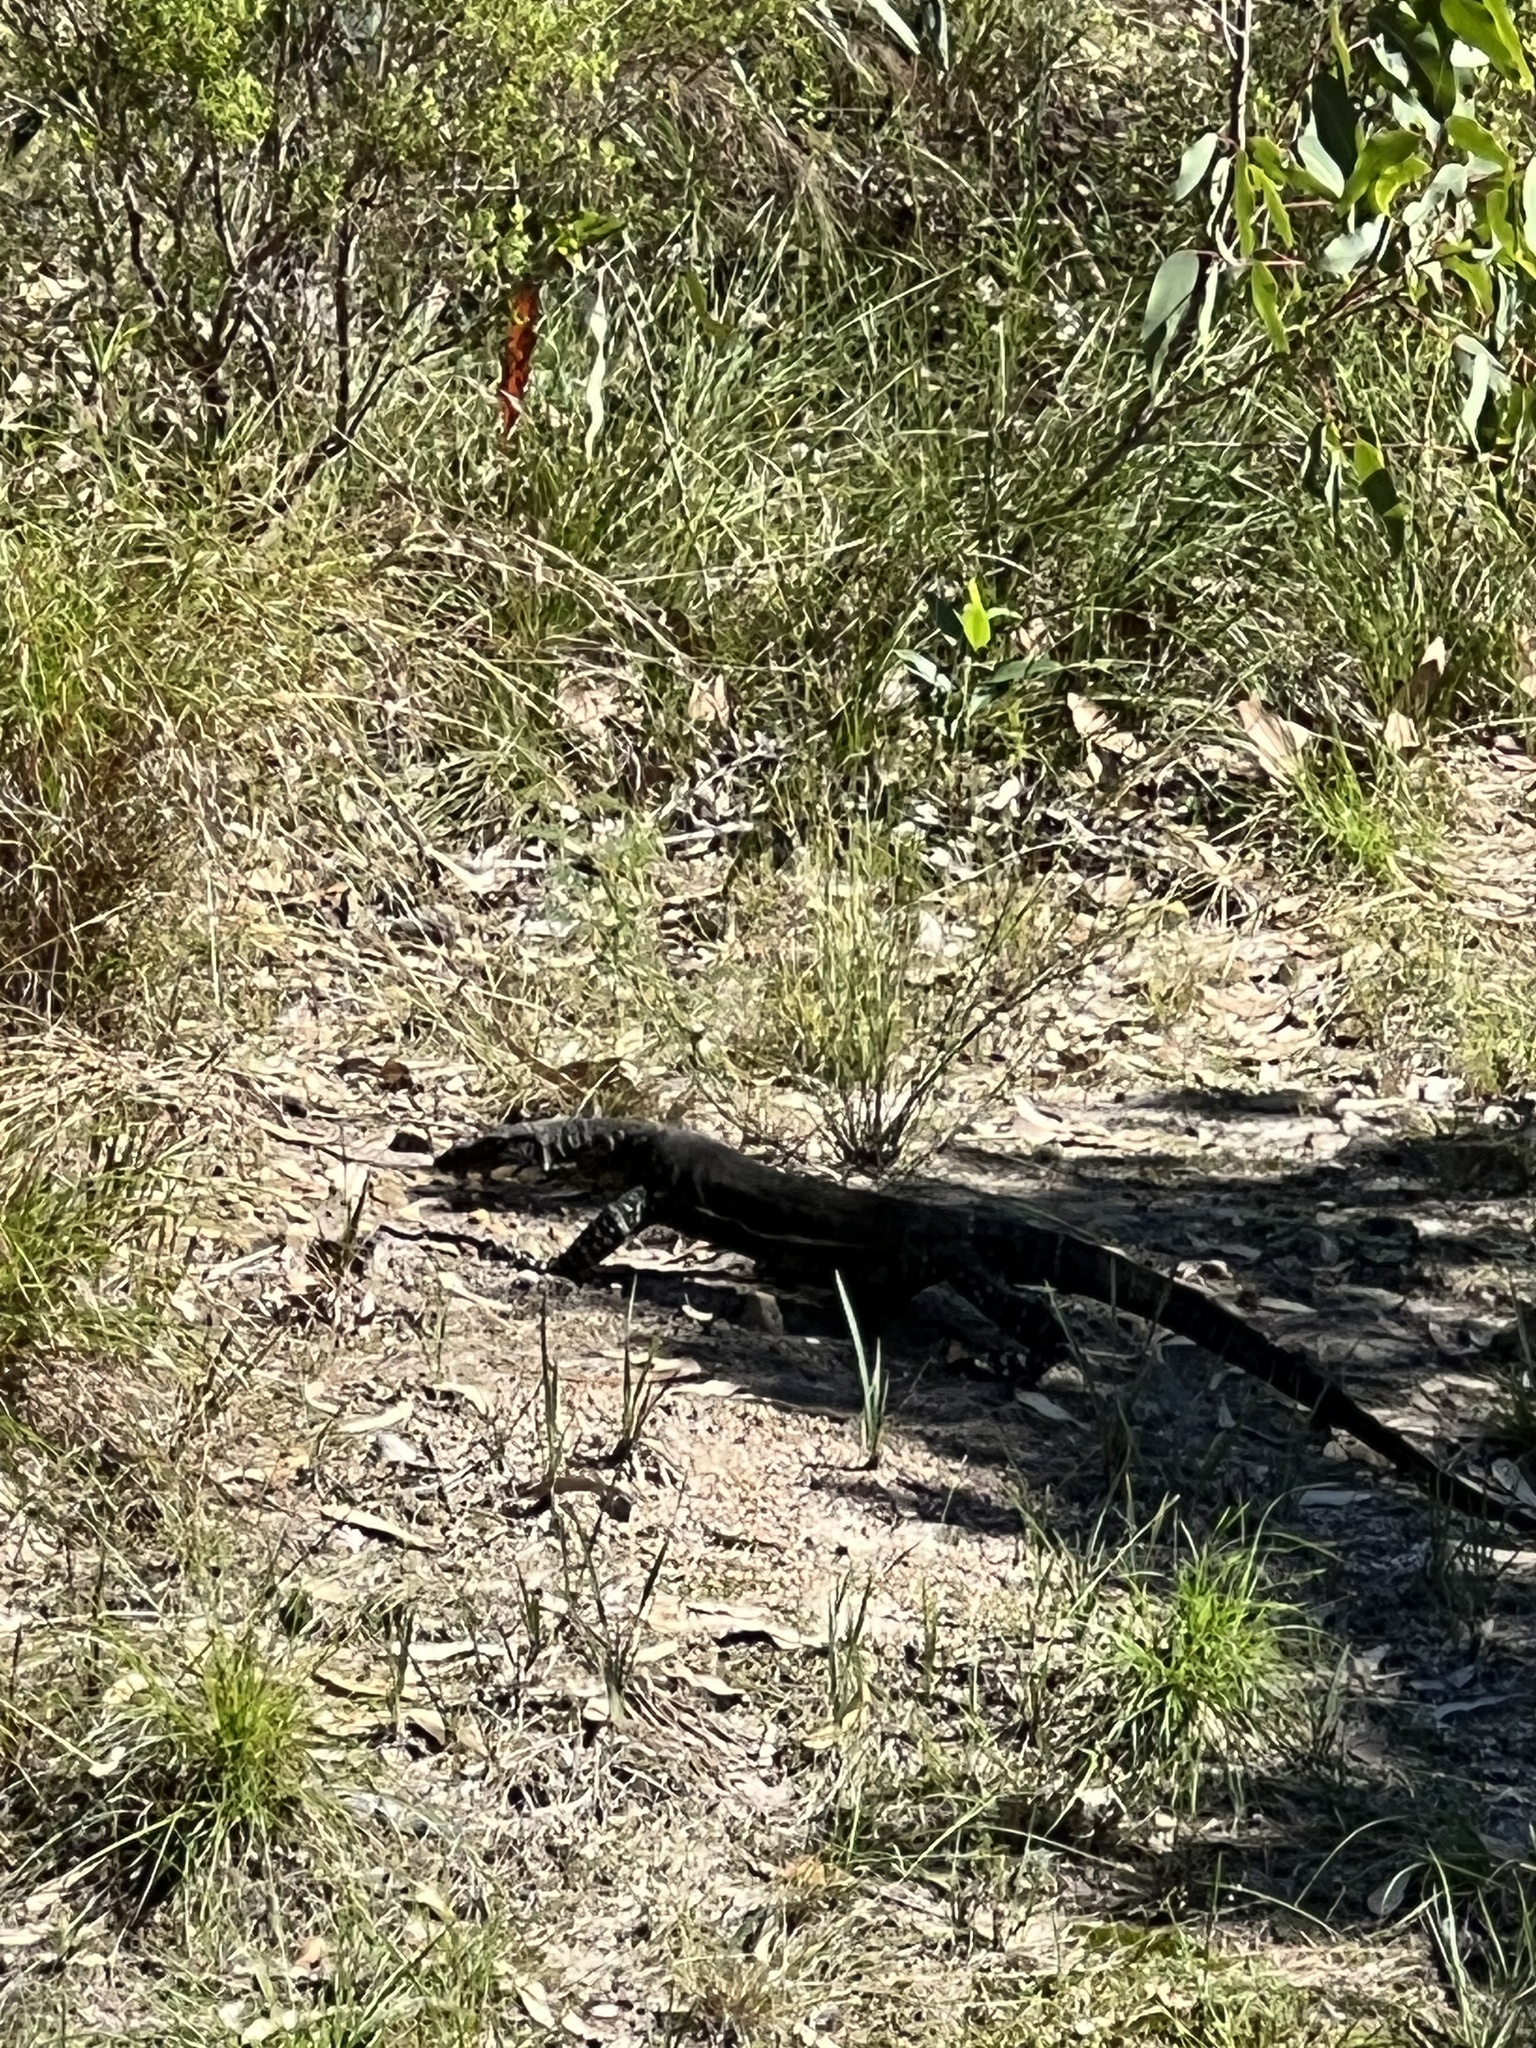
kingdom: Animalia
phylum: Chordata
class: Squamata
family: Varanidae
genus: Varanus
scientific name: Varanus varius
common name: Lace monitor
